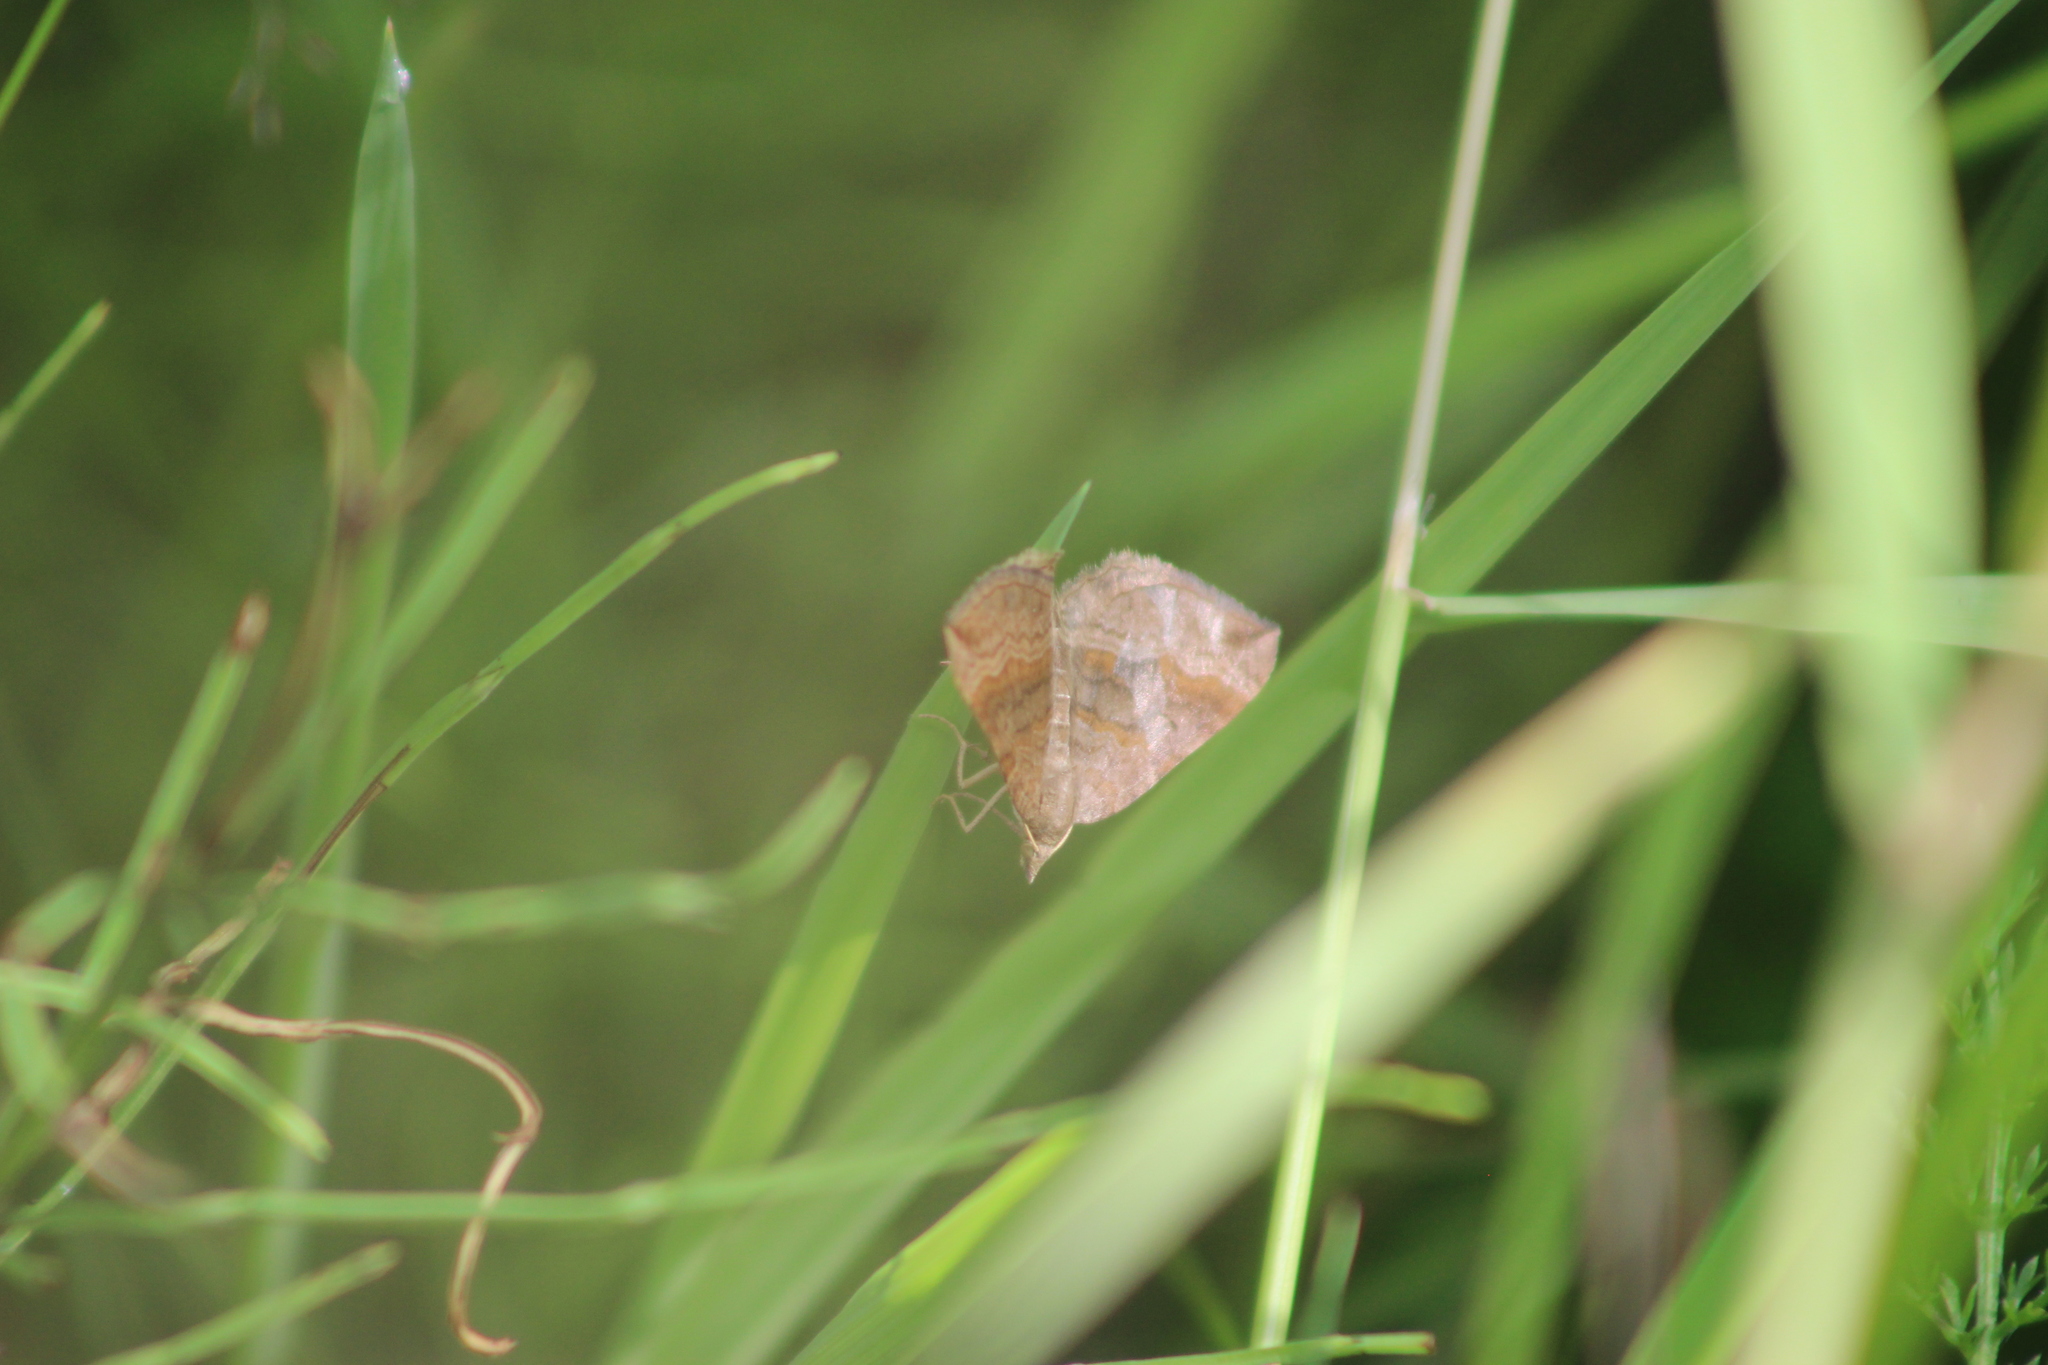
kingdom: Animalia
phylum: Arthropoda
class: Insecta
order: Lepidoptera
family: Geometridae
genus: Scotopteryx
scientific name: Scotopteryx chenopodiata
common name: Shaded broad-bar
